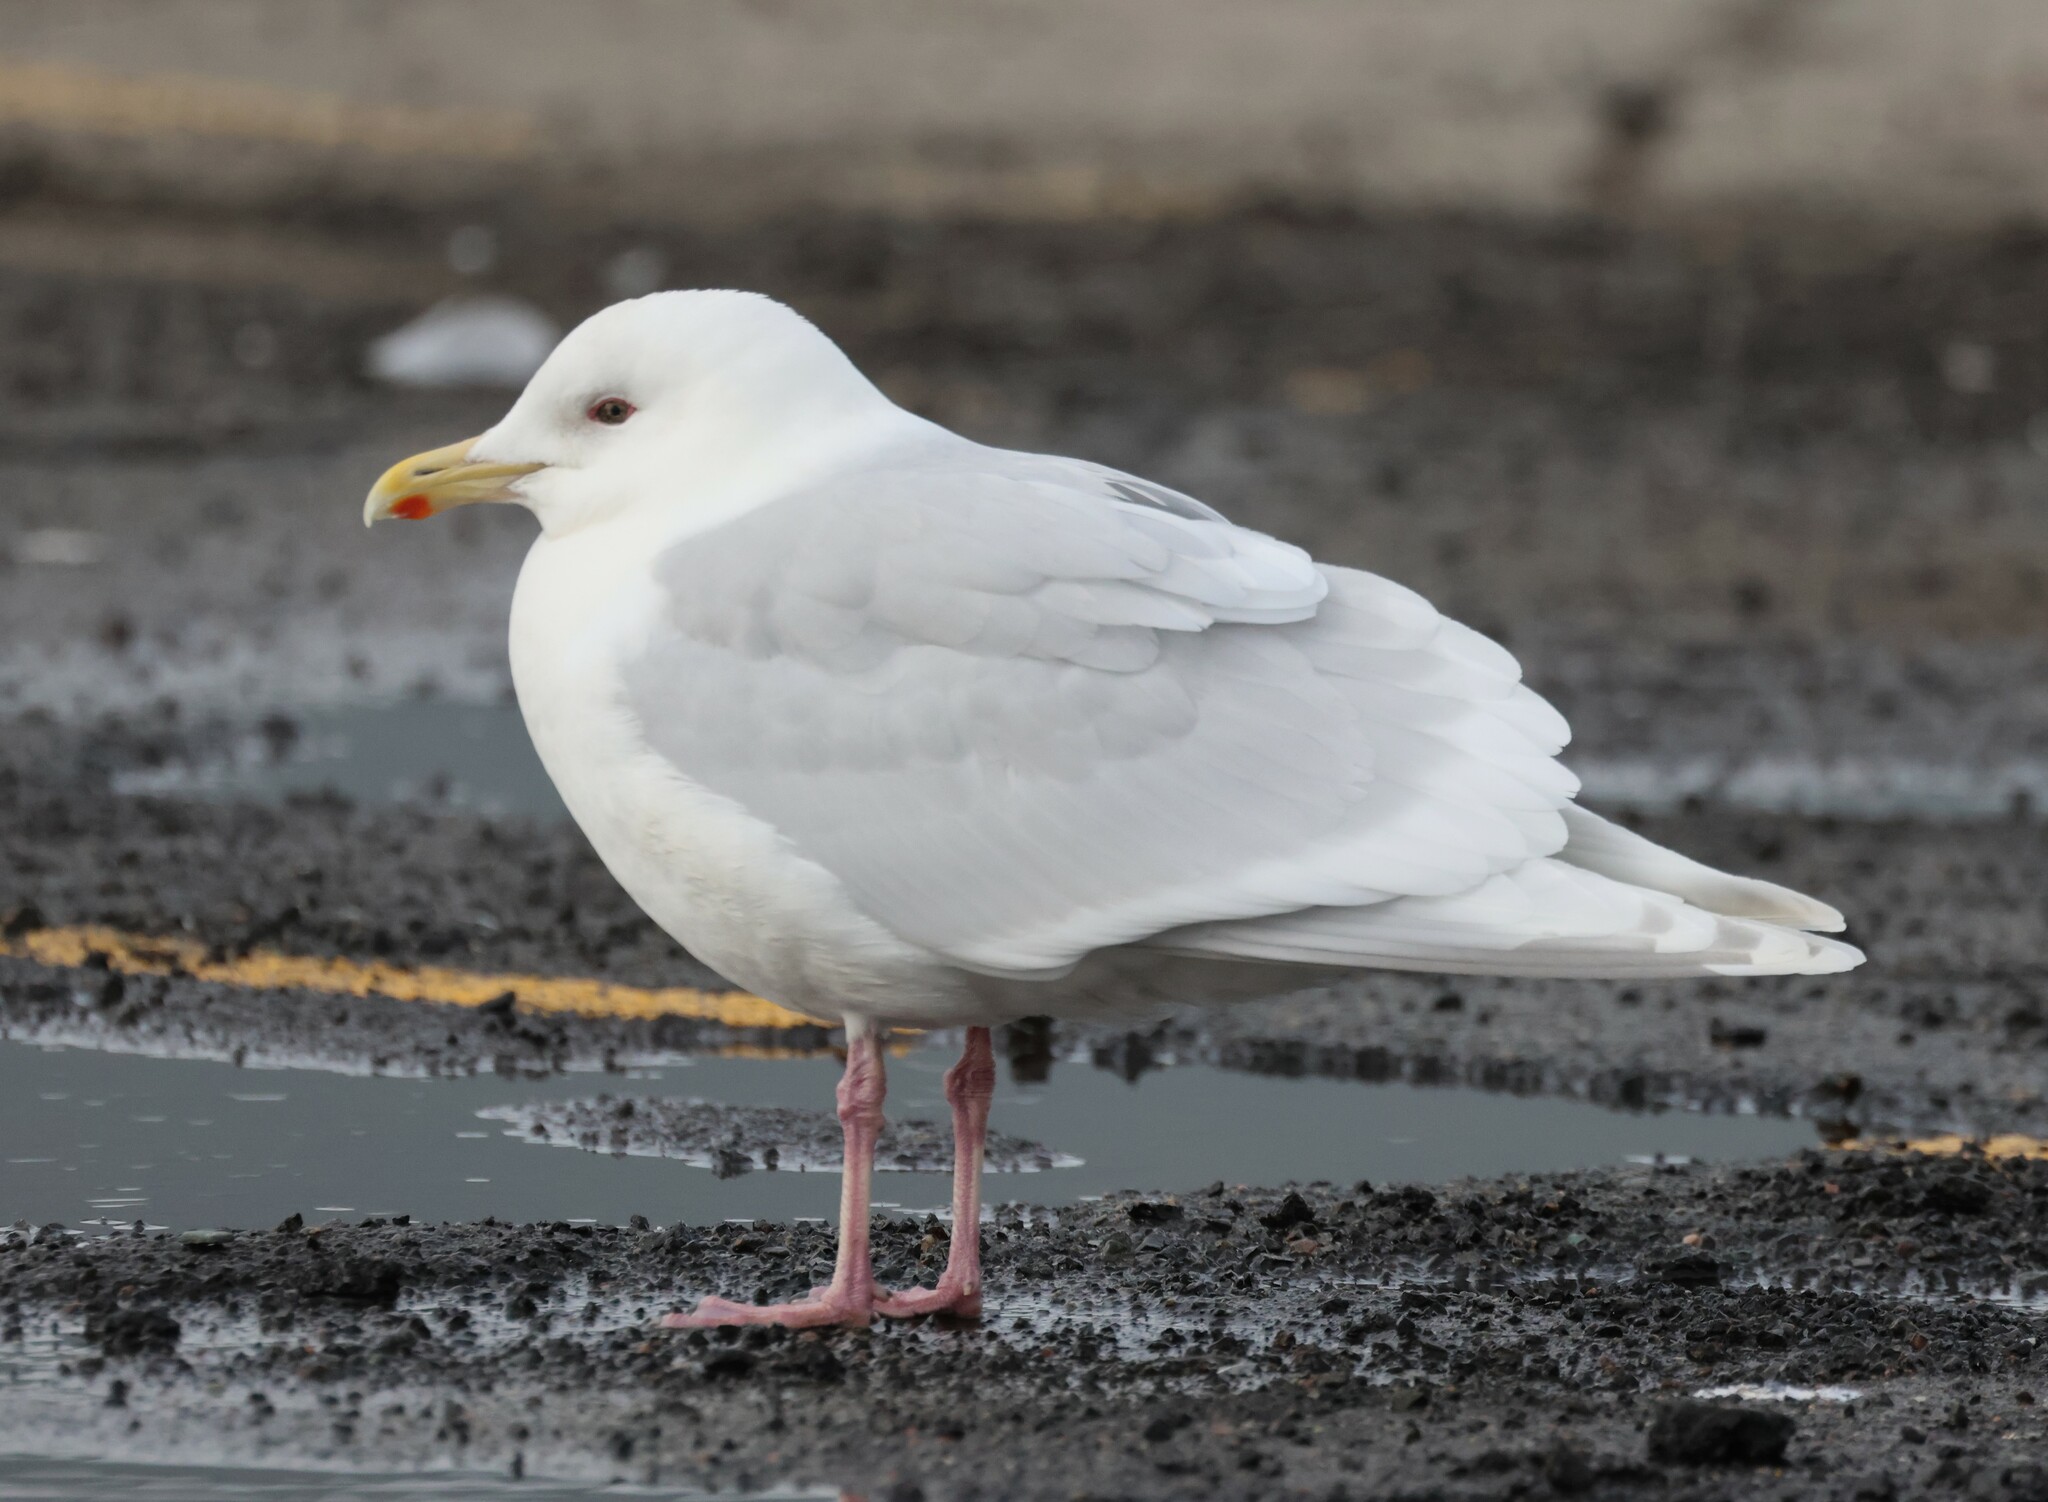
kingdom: Animalia
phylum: Chordata
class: Aves
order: Charadriiformes
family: Laridae
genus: Larus
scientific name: Larus glaucoides
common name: Iceland gull
